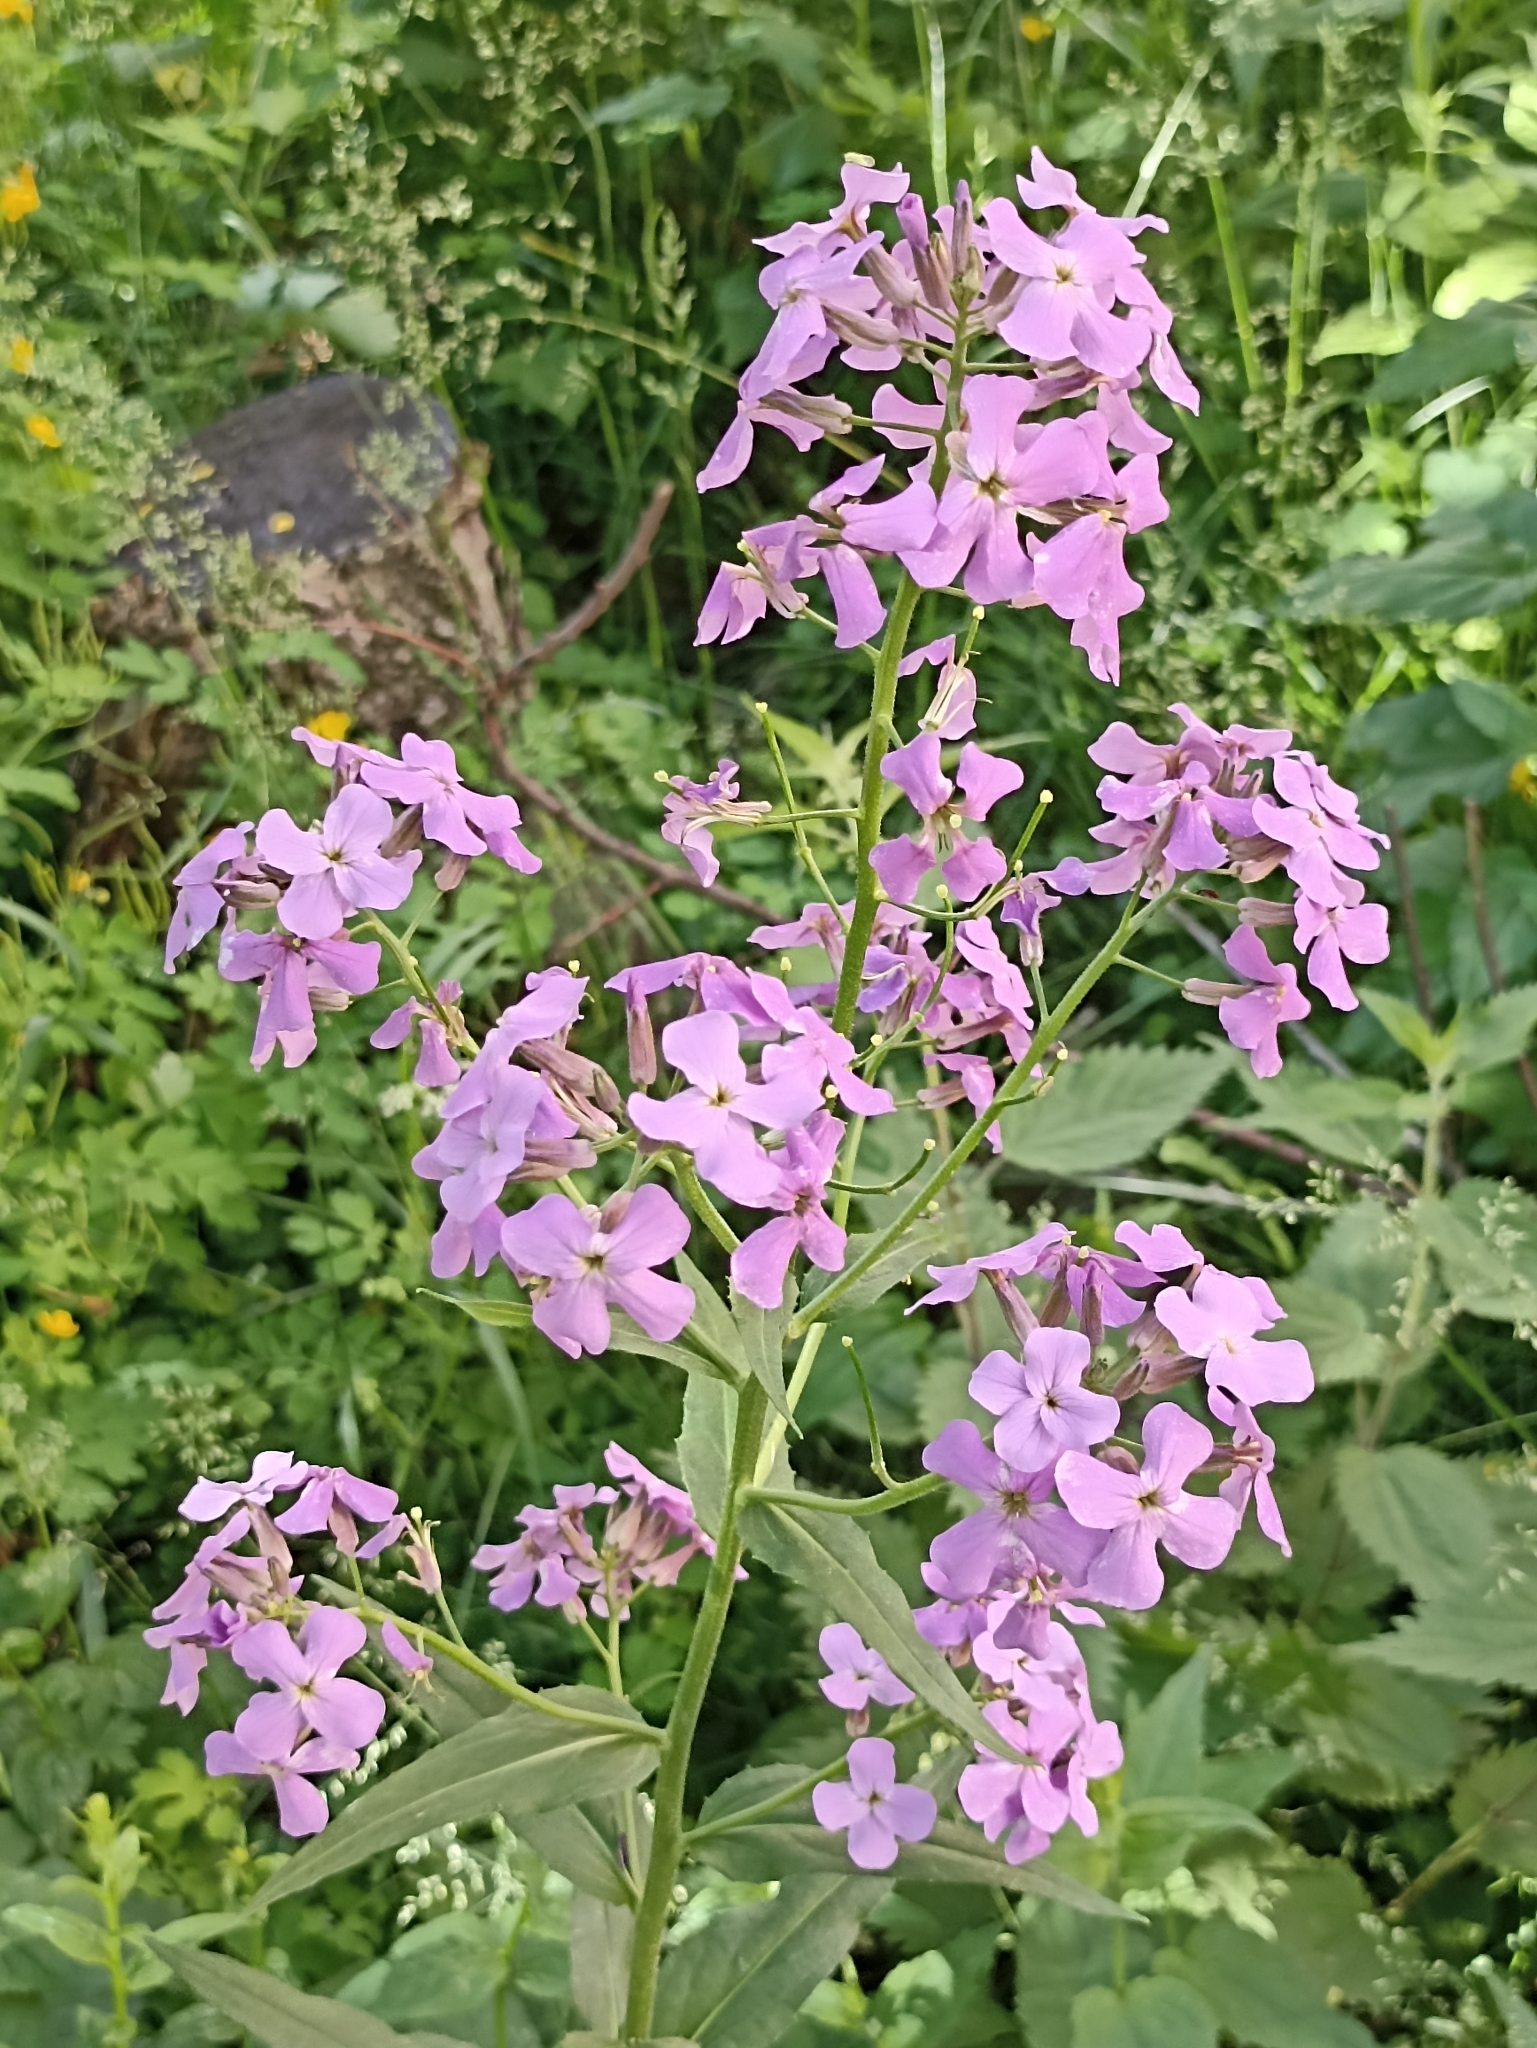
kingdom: Plantae
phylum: Tracheophyta
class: Magnoliopsida
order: Brassicales
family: Brassicaceae
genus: Hesperis
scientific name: Hesperis sibirica
